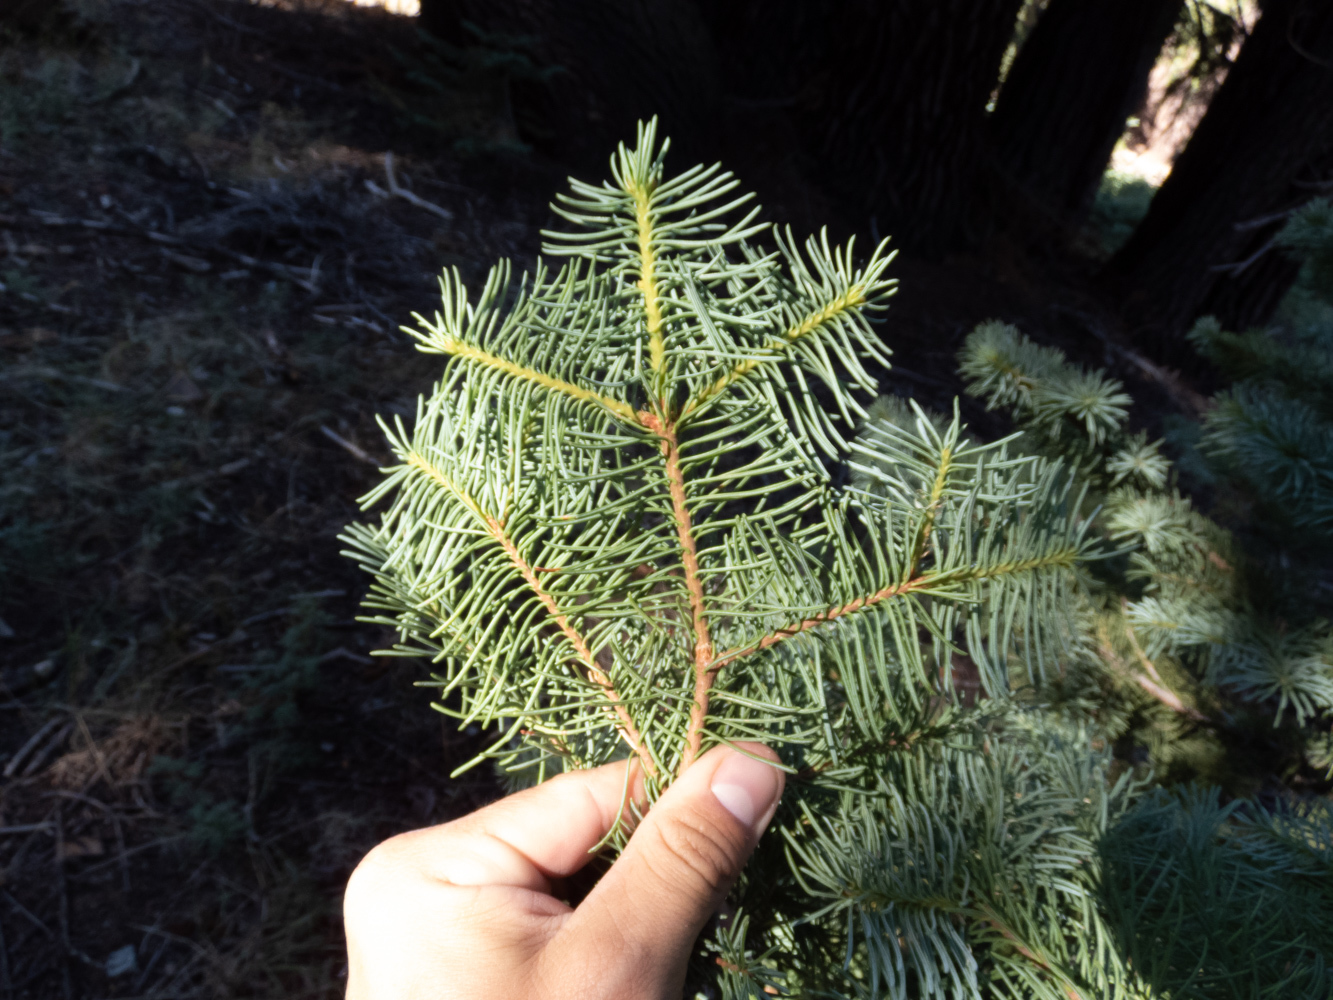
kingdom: Plantae
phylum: Tracheophyta
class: Pinopsida
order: Pinales
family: Pinaceae
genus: Abies
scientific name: Abies concolor
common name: Colorado fir
